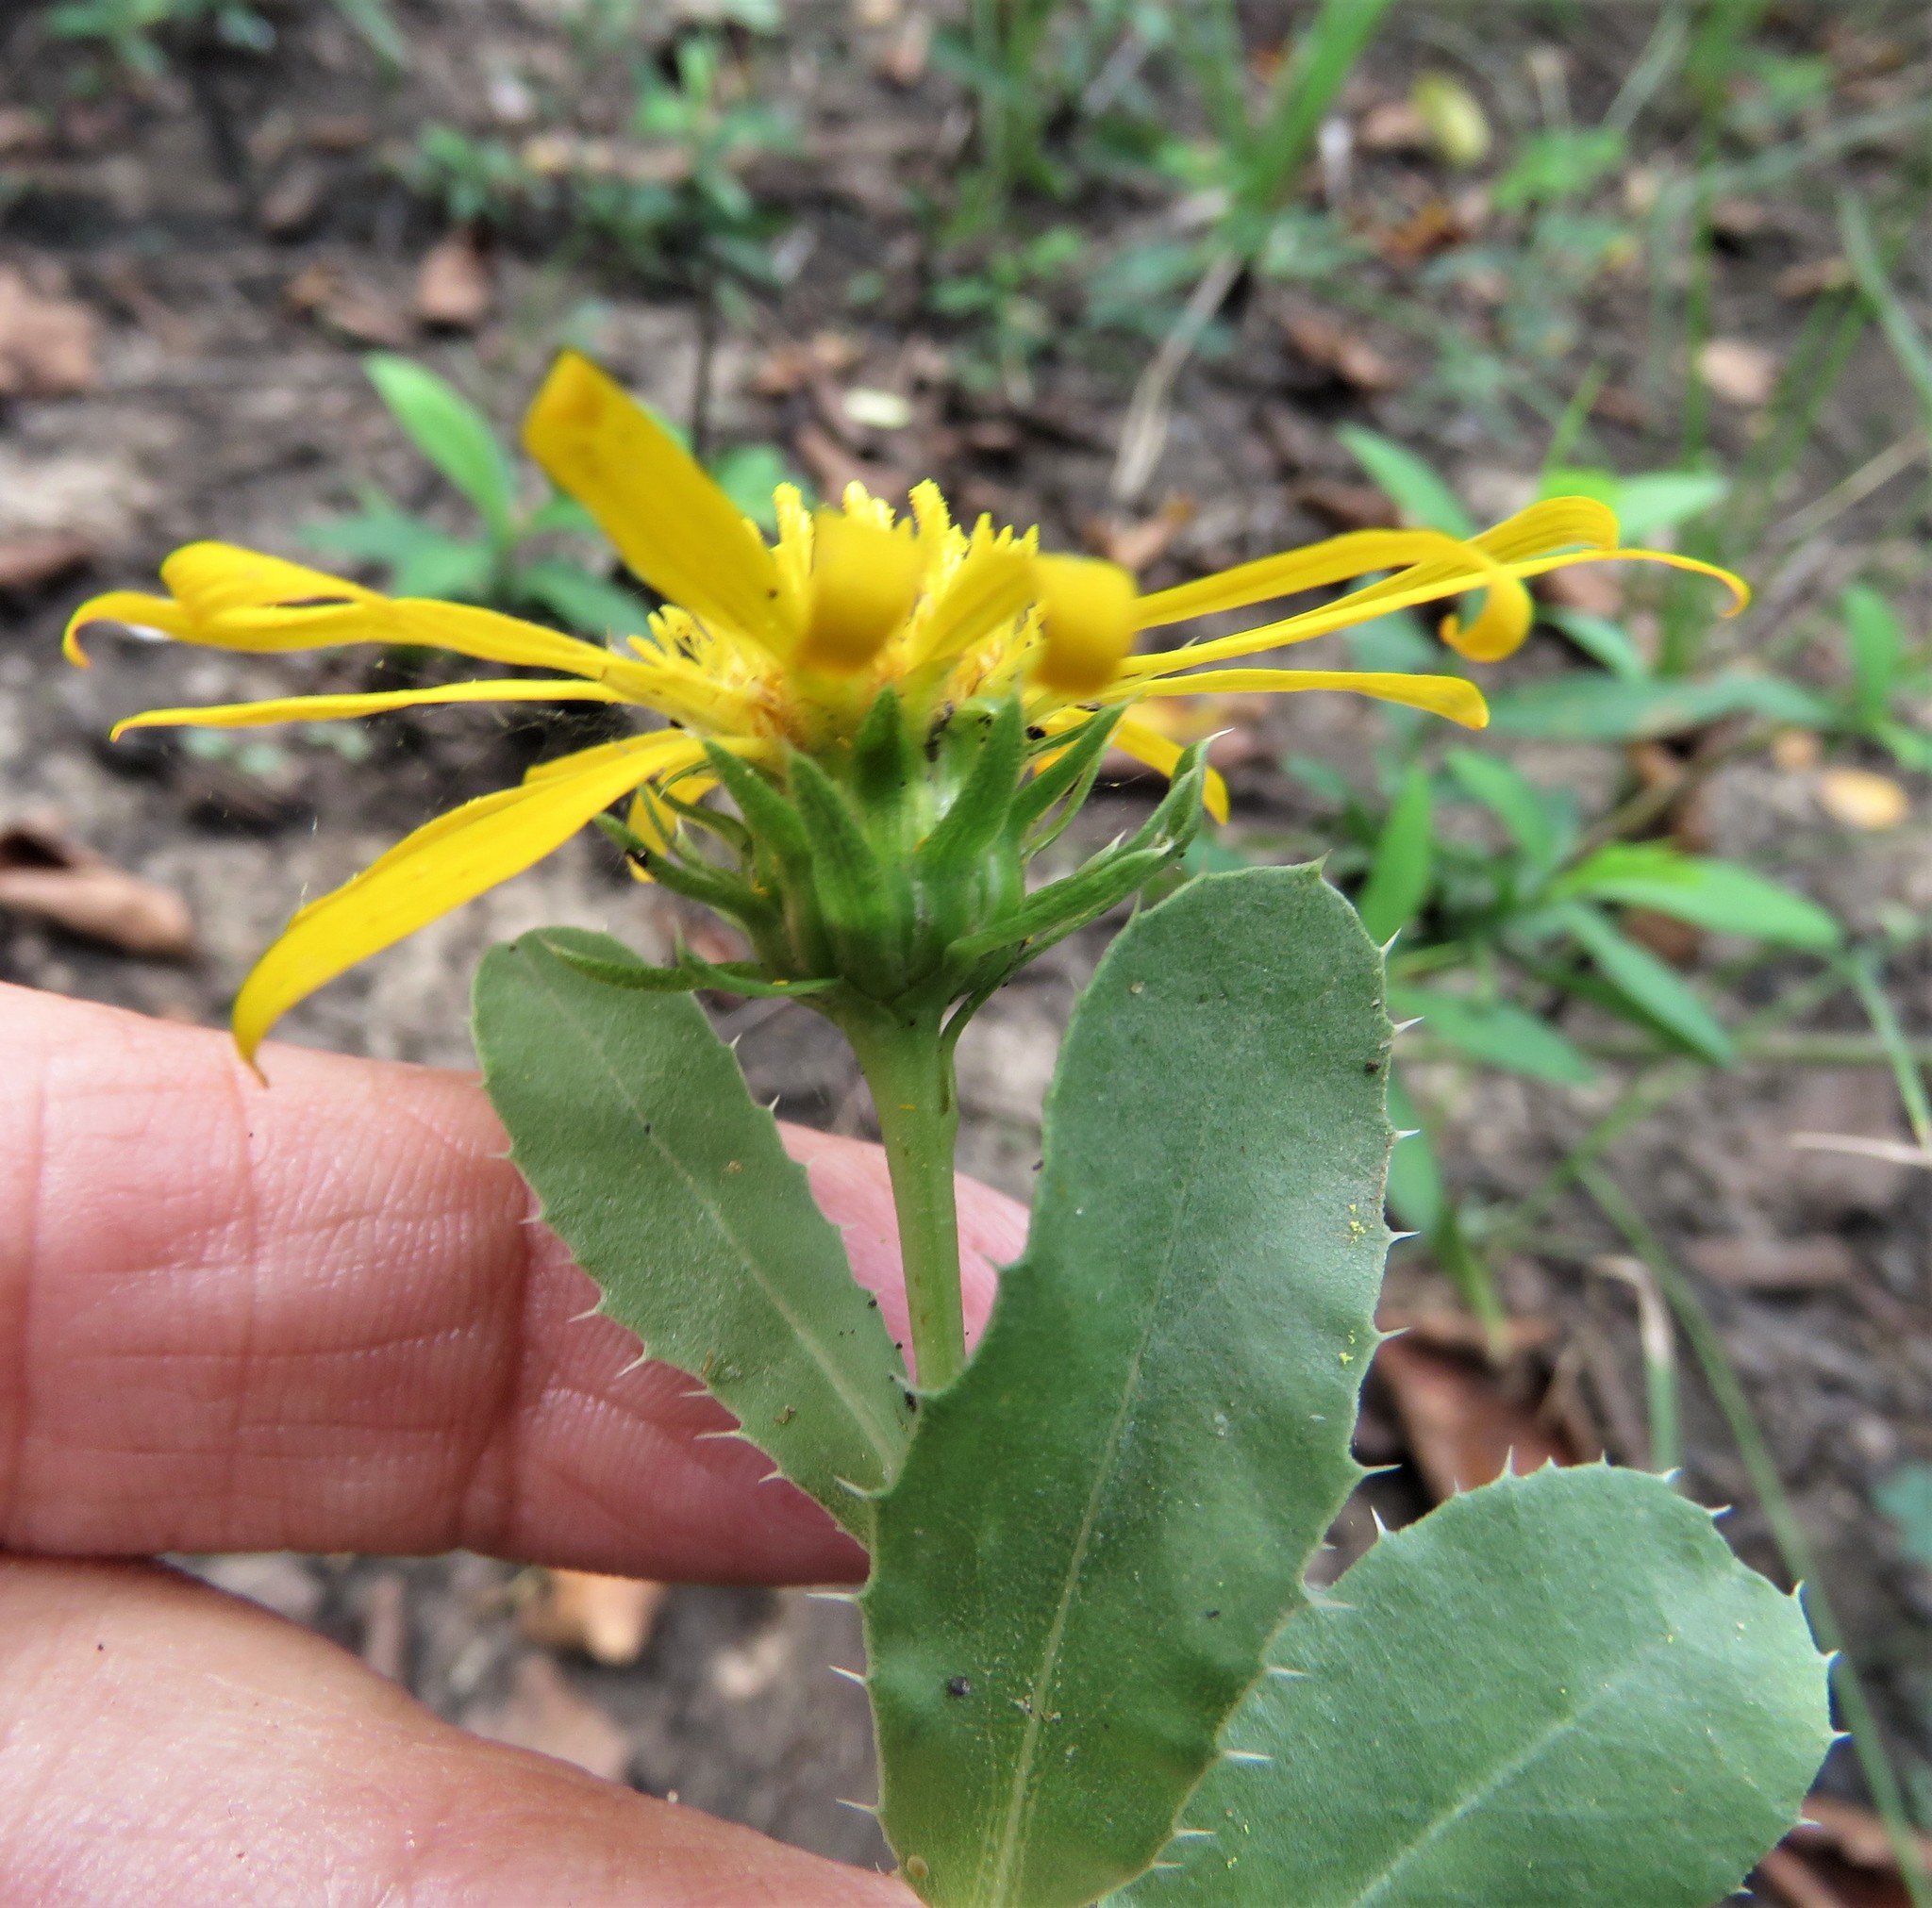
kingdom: Plantae
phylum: Tracheophyta
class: Magnoliopsida
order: Asterales
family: Asteraceae
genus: Grindelia
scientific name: Grindelia ciliata
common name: Goldenweed
